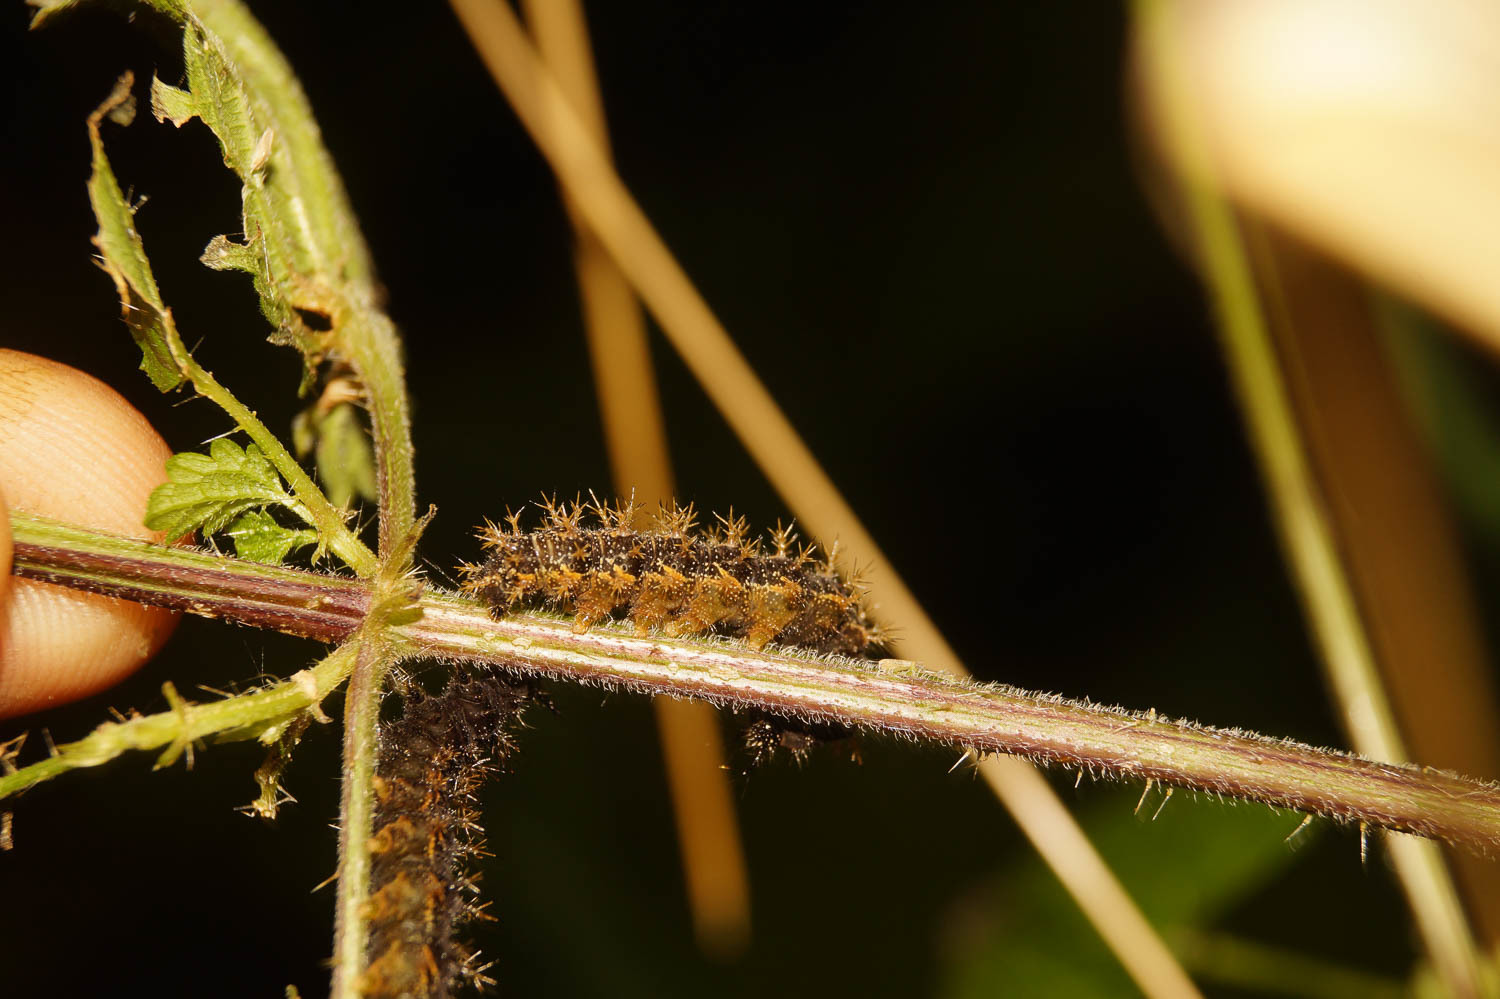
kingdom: Animalia
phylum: Arthropoda
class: Insecta
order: Lepidoptera
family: Nymphalidae
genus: Araschnia
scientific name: Araschnia levana
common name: Map butterfly
